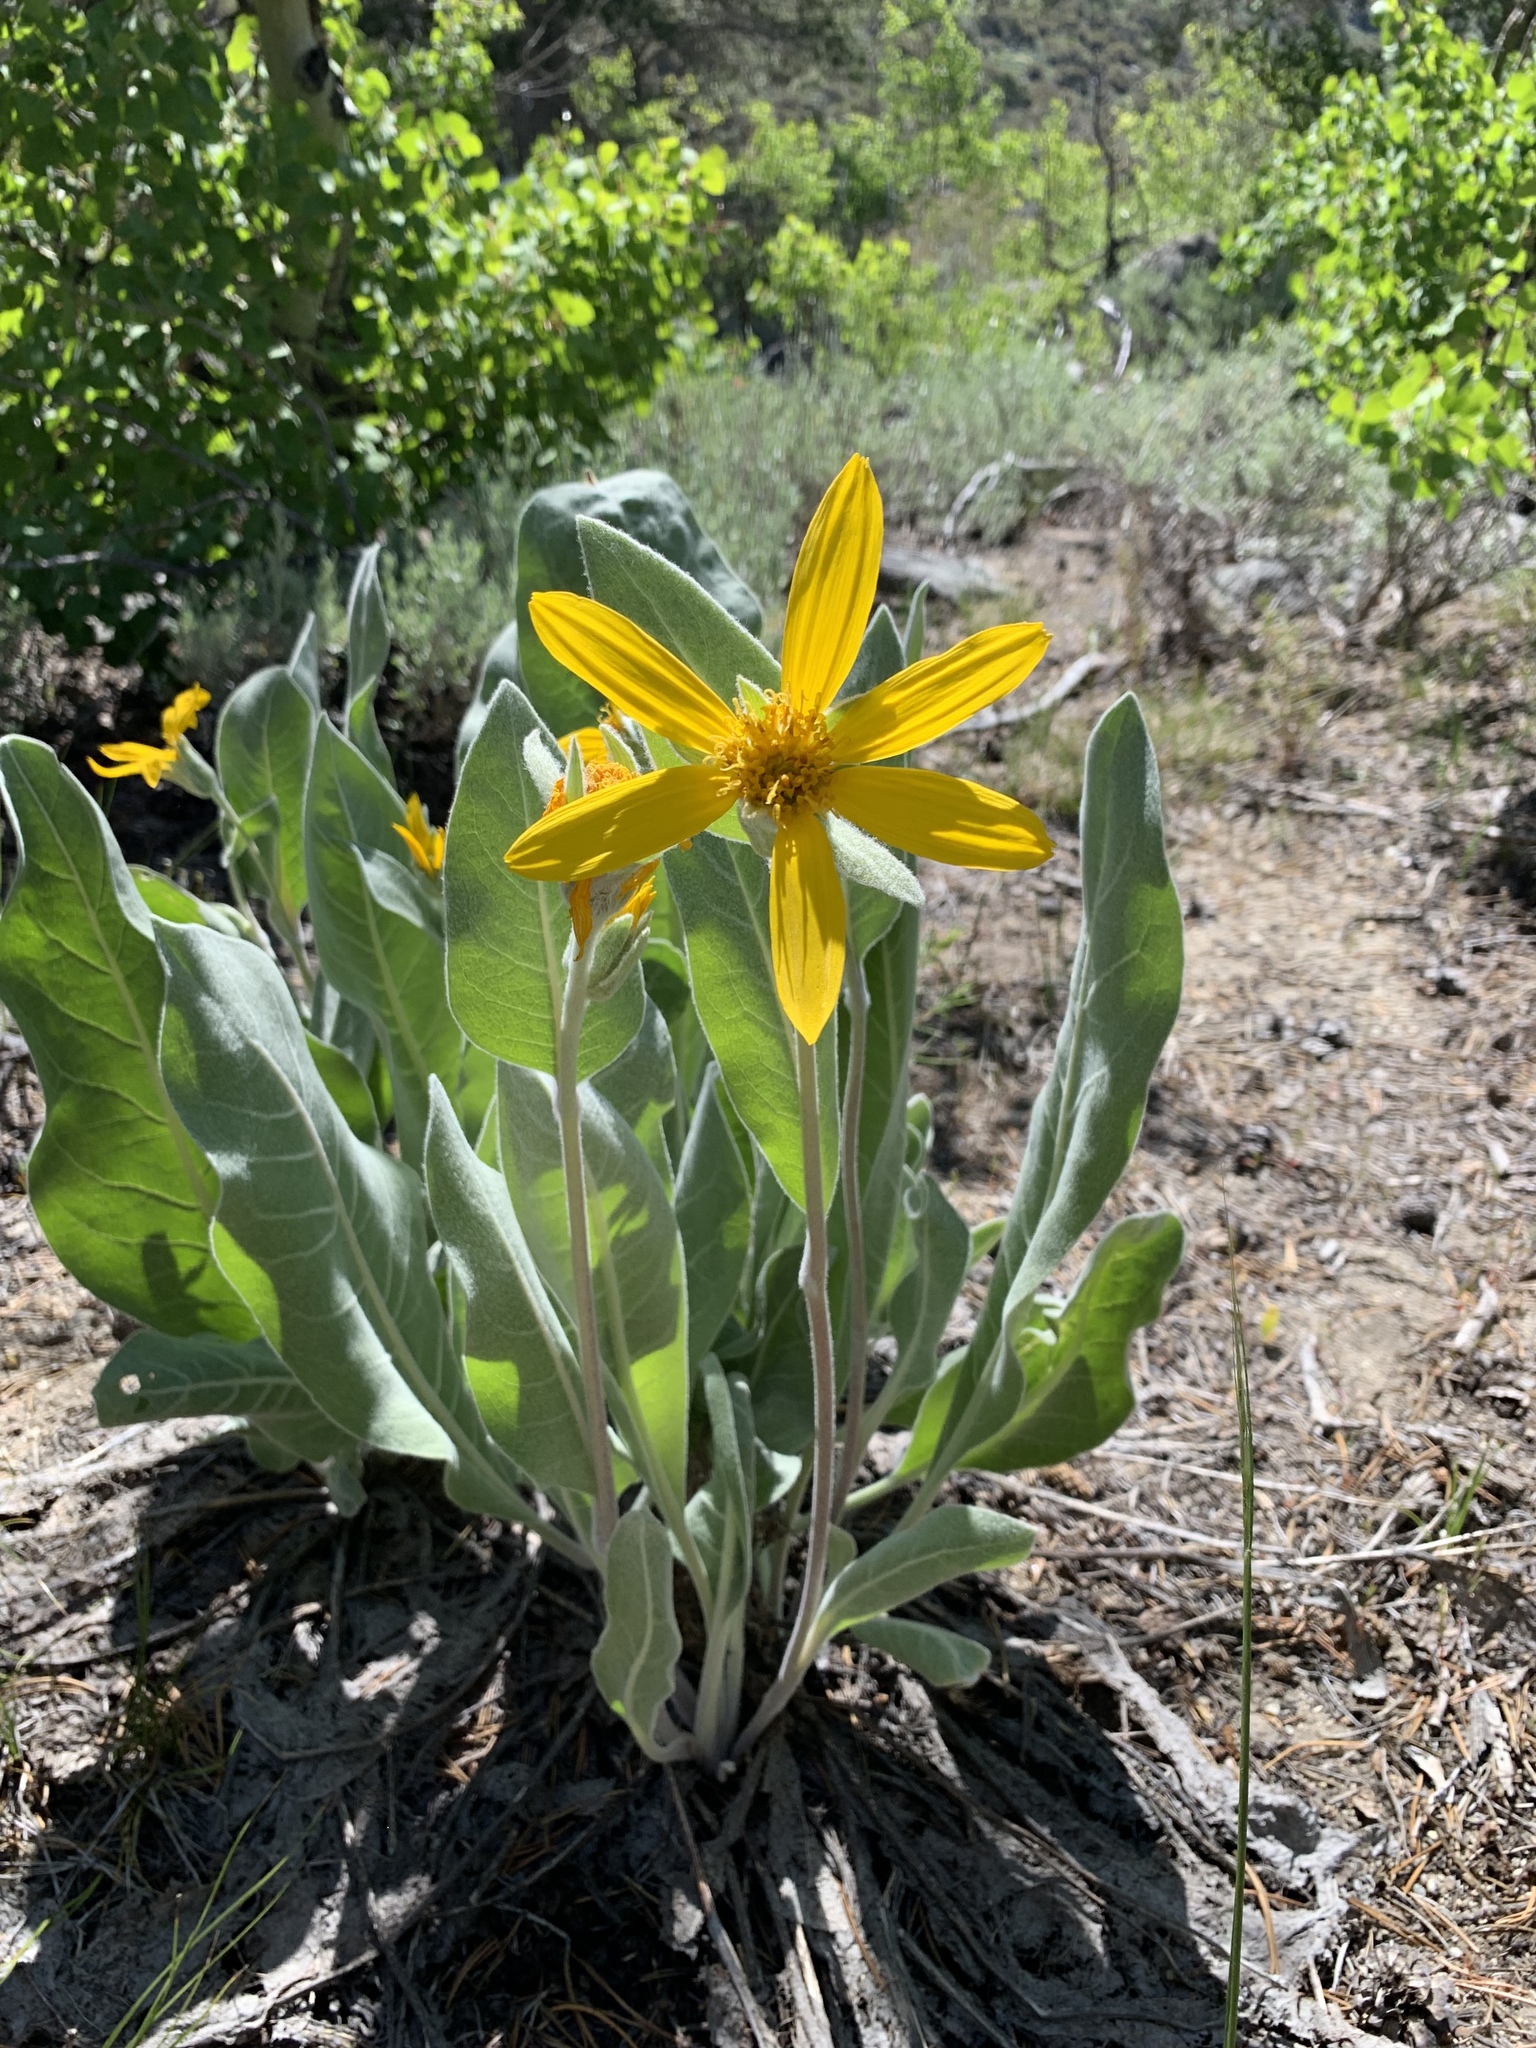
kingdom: Plantae
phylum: Tracheophyta
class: Magnoliopsida
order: Asterales
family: Asteraceae
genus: Wyethia
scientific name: Wyethia mollis
